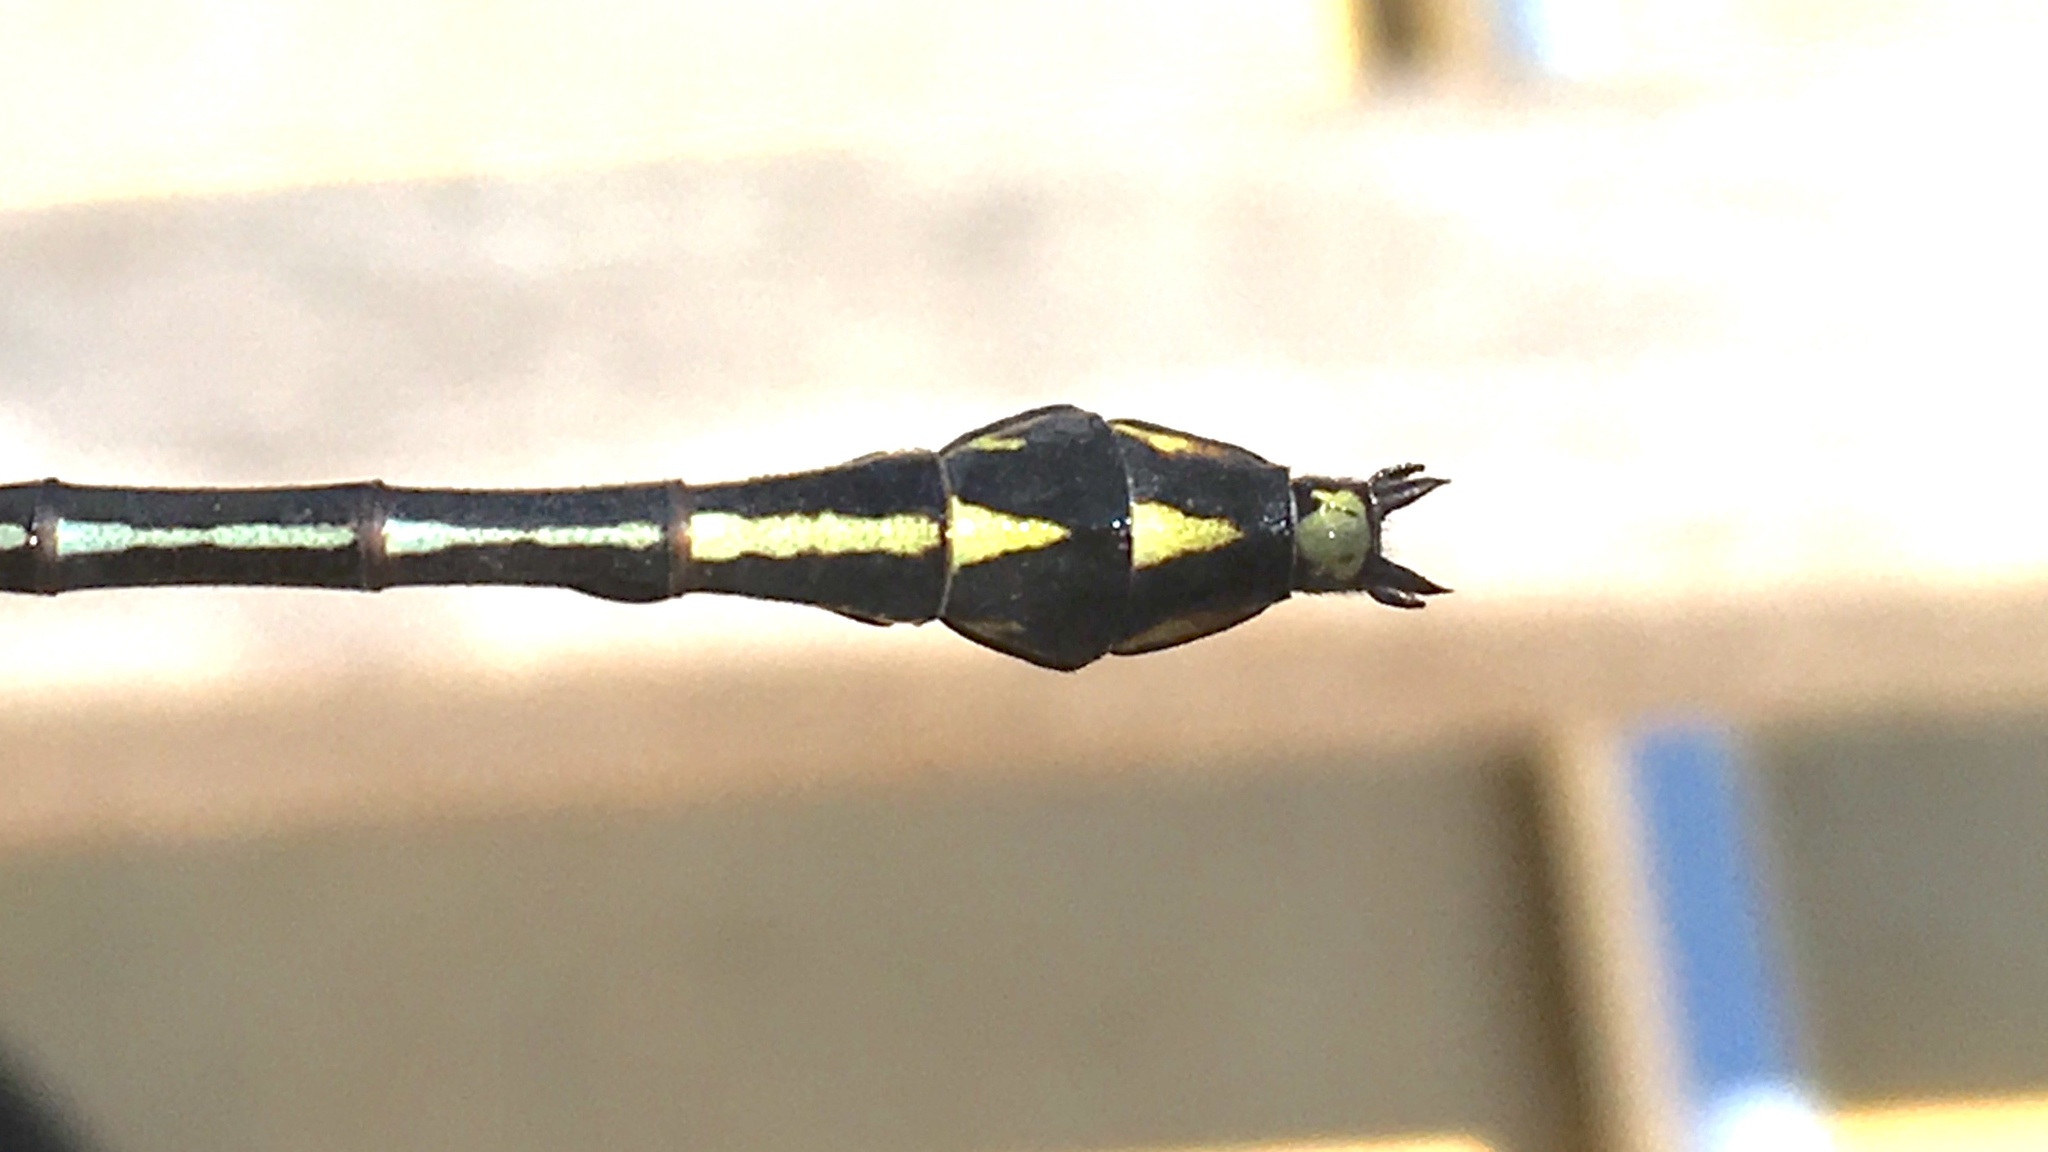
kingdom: Animalia
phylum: Arthropoda
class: Insecta
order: Odonata
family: Gomphidae
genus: Dromogomphus
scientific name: Dromogomphus spinosus
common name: Black-shouldered spinyleg
